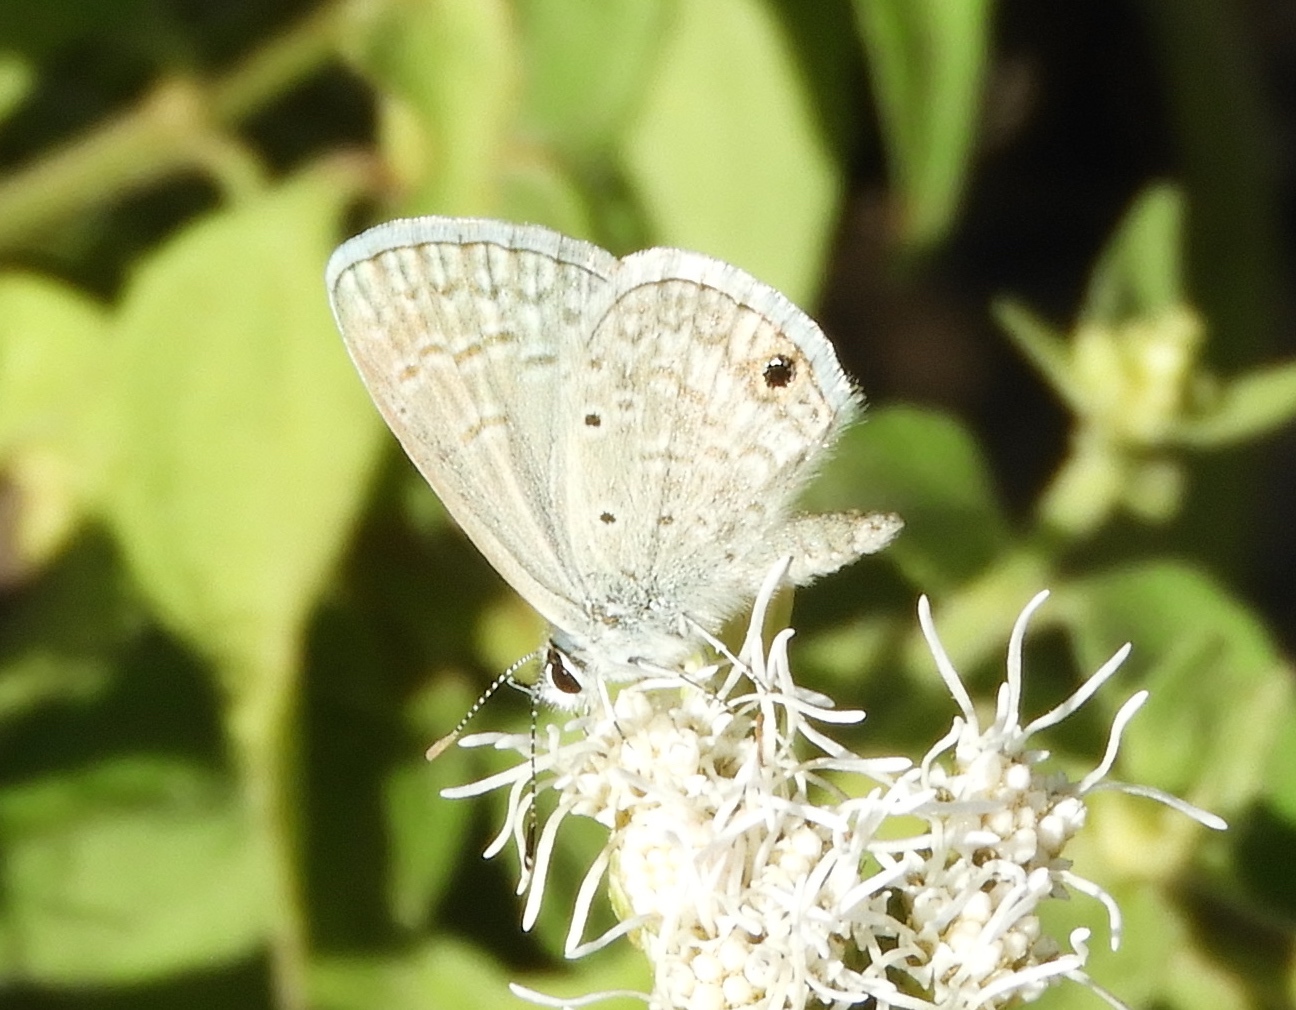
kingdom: Animalia
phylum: Arthropoda
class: Insecta
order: Lepidoptera
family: Lycaenidae
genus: Hemiargus
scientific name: Hemiargus ceraunus
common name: Ceraunus blue
